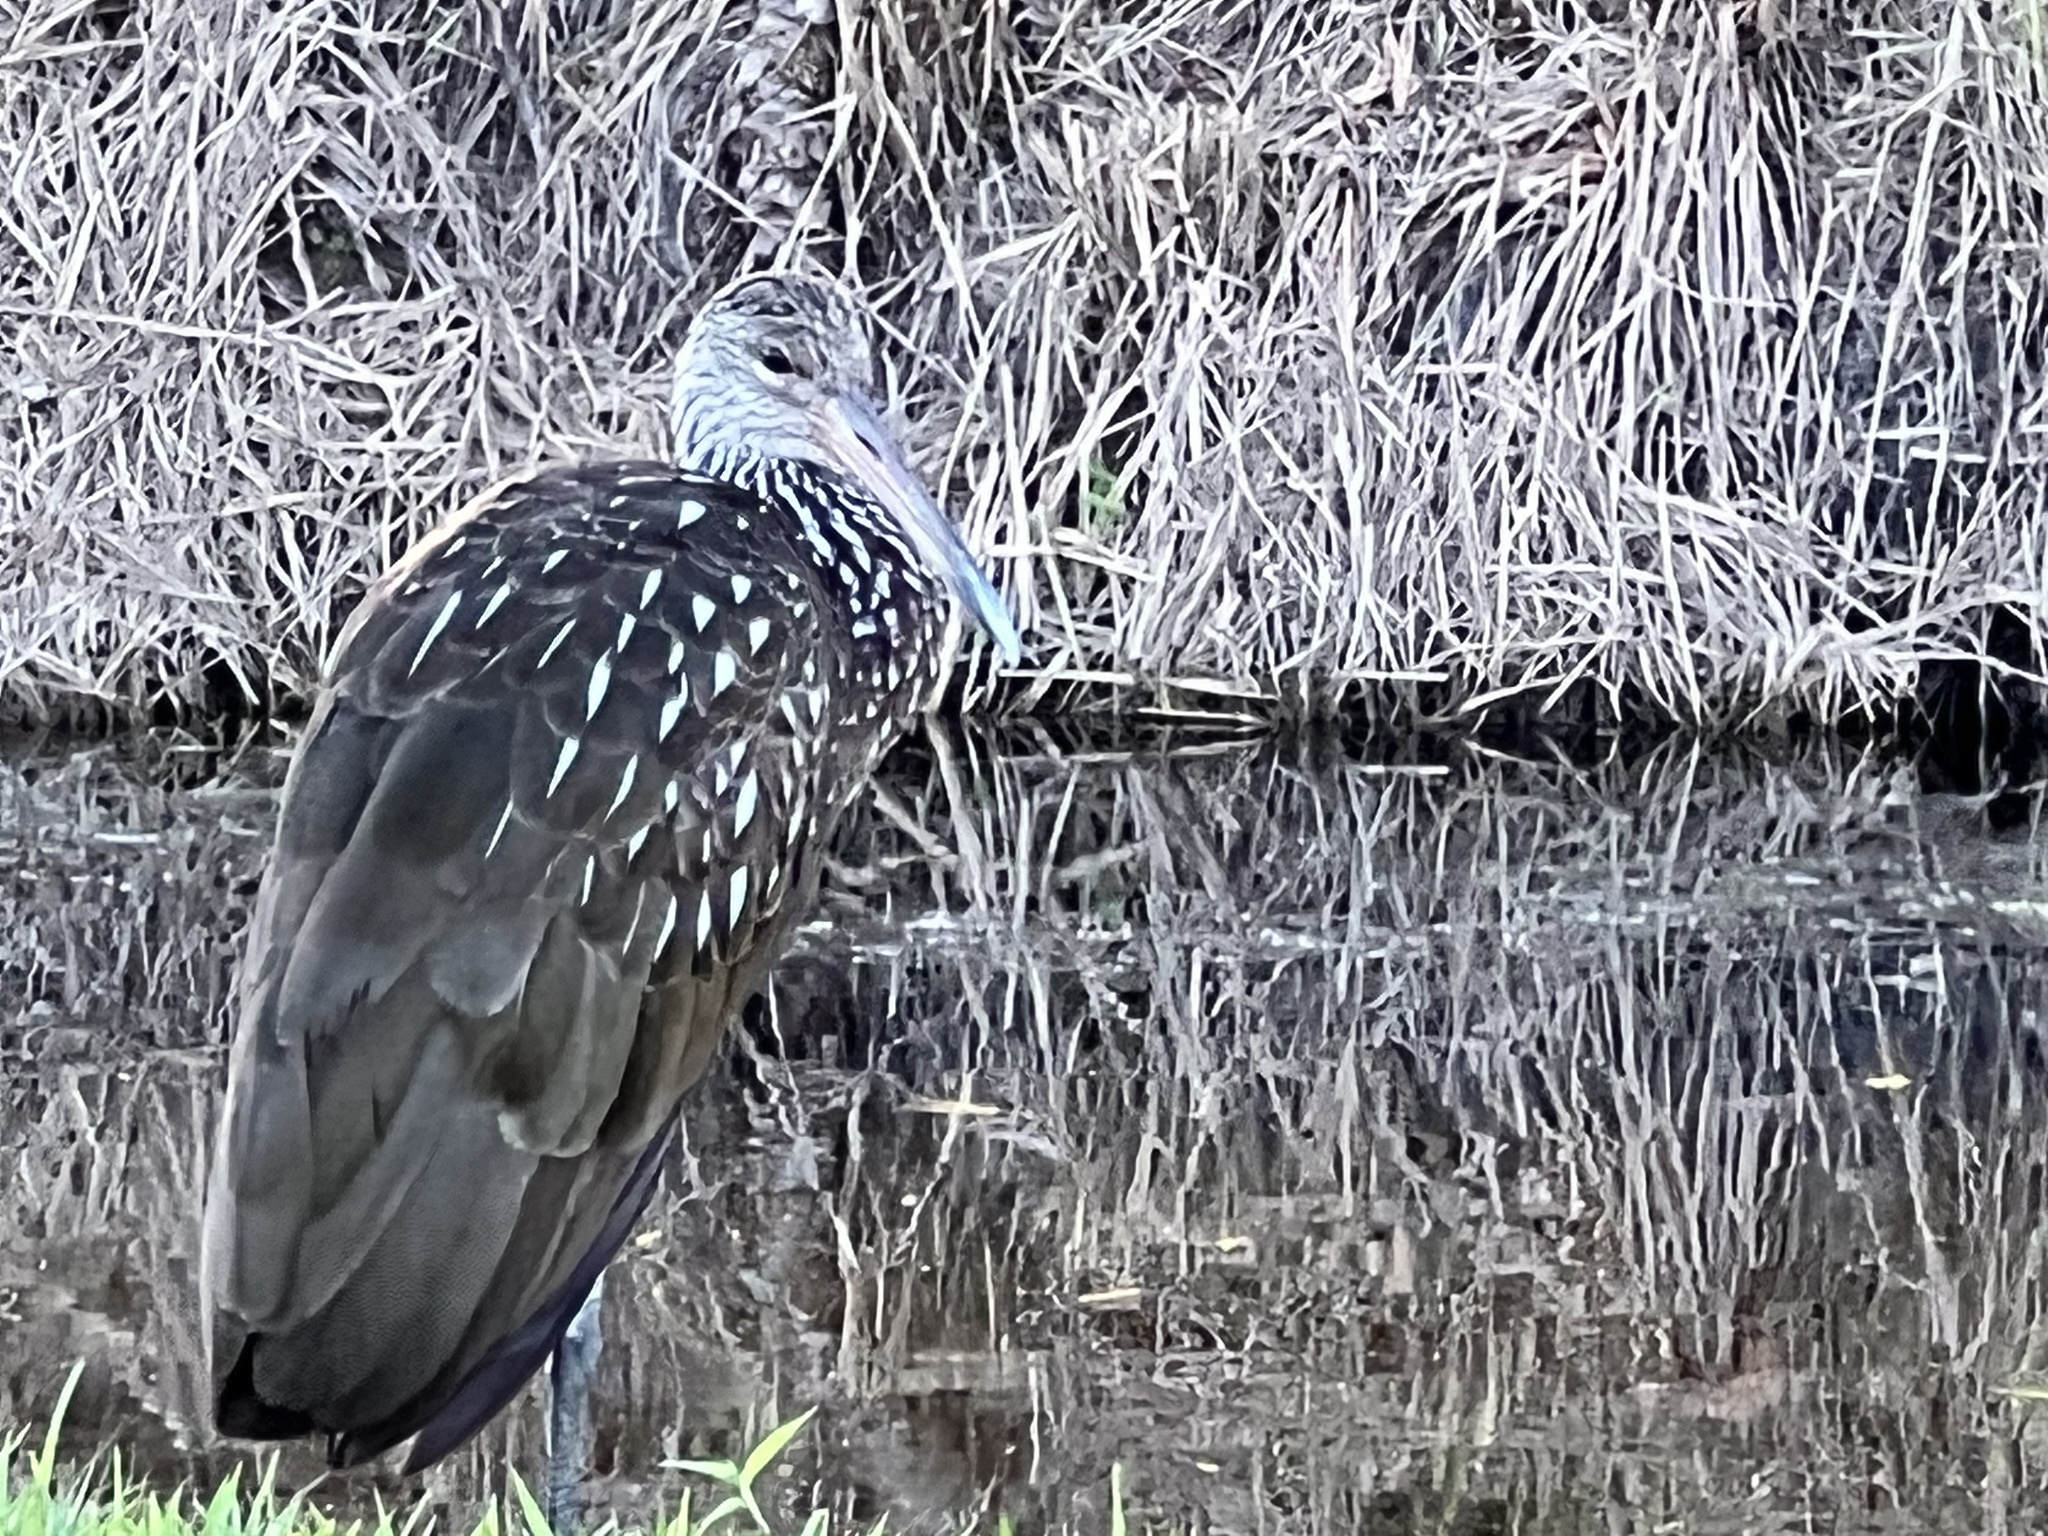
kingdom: Animalia
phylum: Chordata
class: Aves
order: Gruiformes
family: Aramidae
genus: Aramus
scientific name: Aramus guarauna
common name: Limpkin
